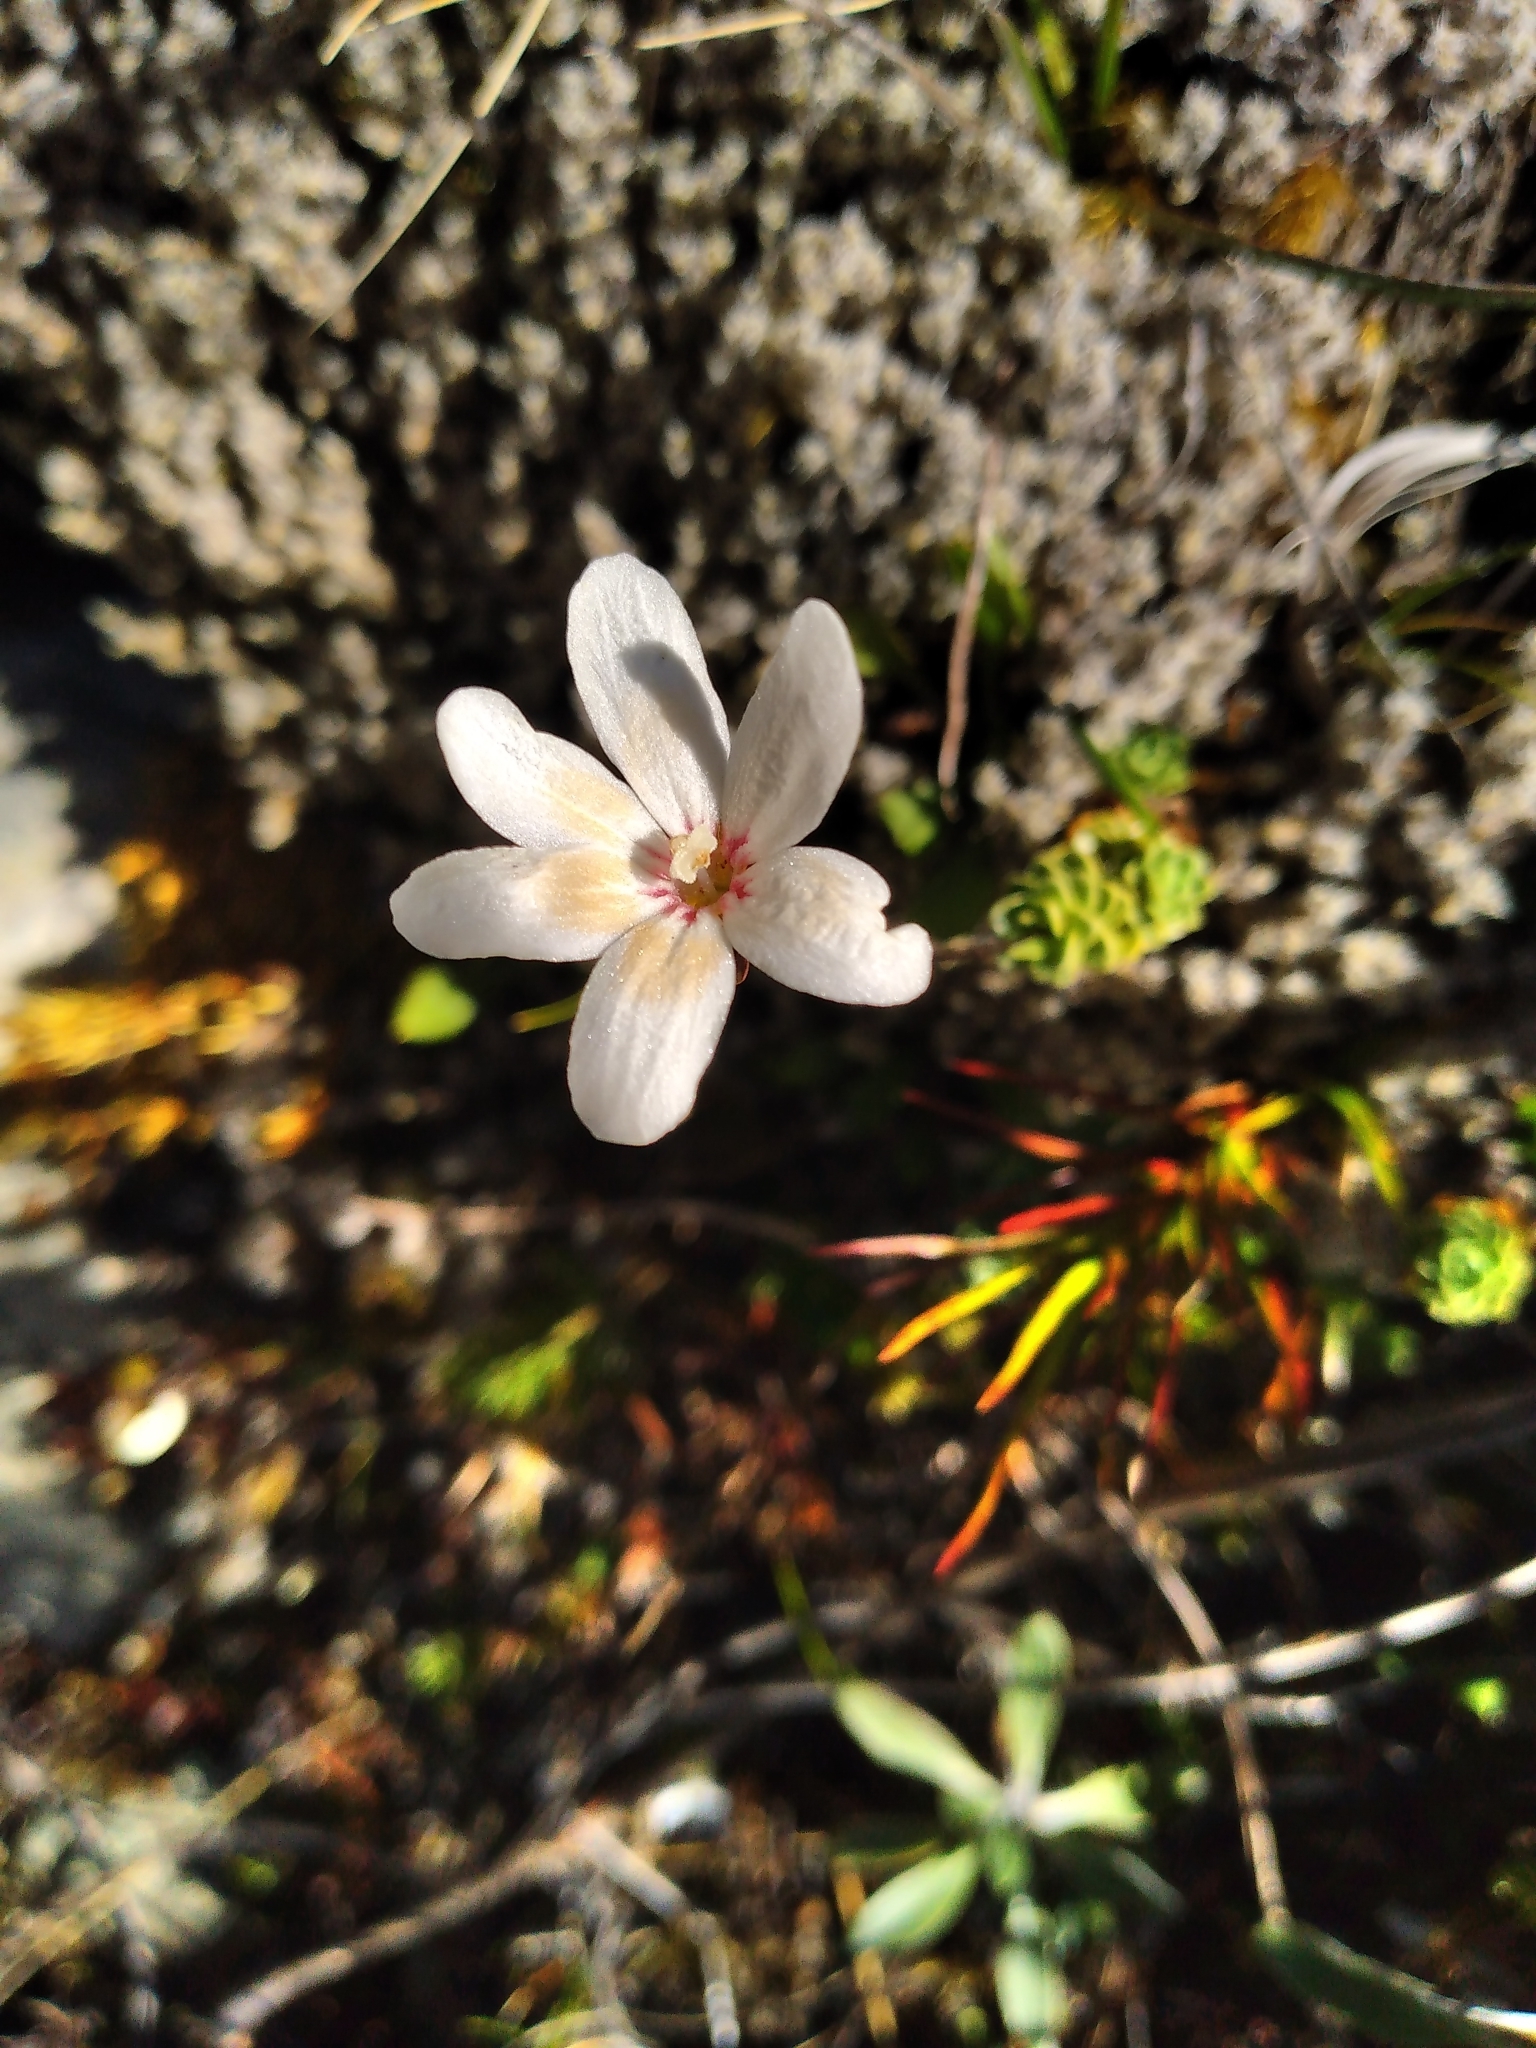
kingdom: Plantae
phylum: Tracheophyta
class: Magnoliopsida
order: Asterales
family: Stylidiaceae
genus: Forstera
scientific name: Forstera sedifolia
